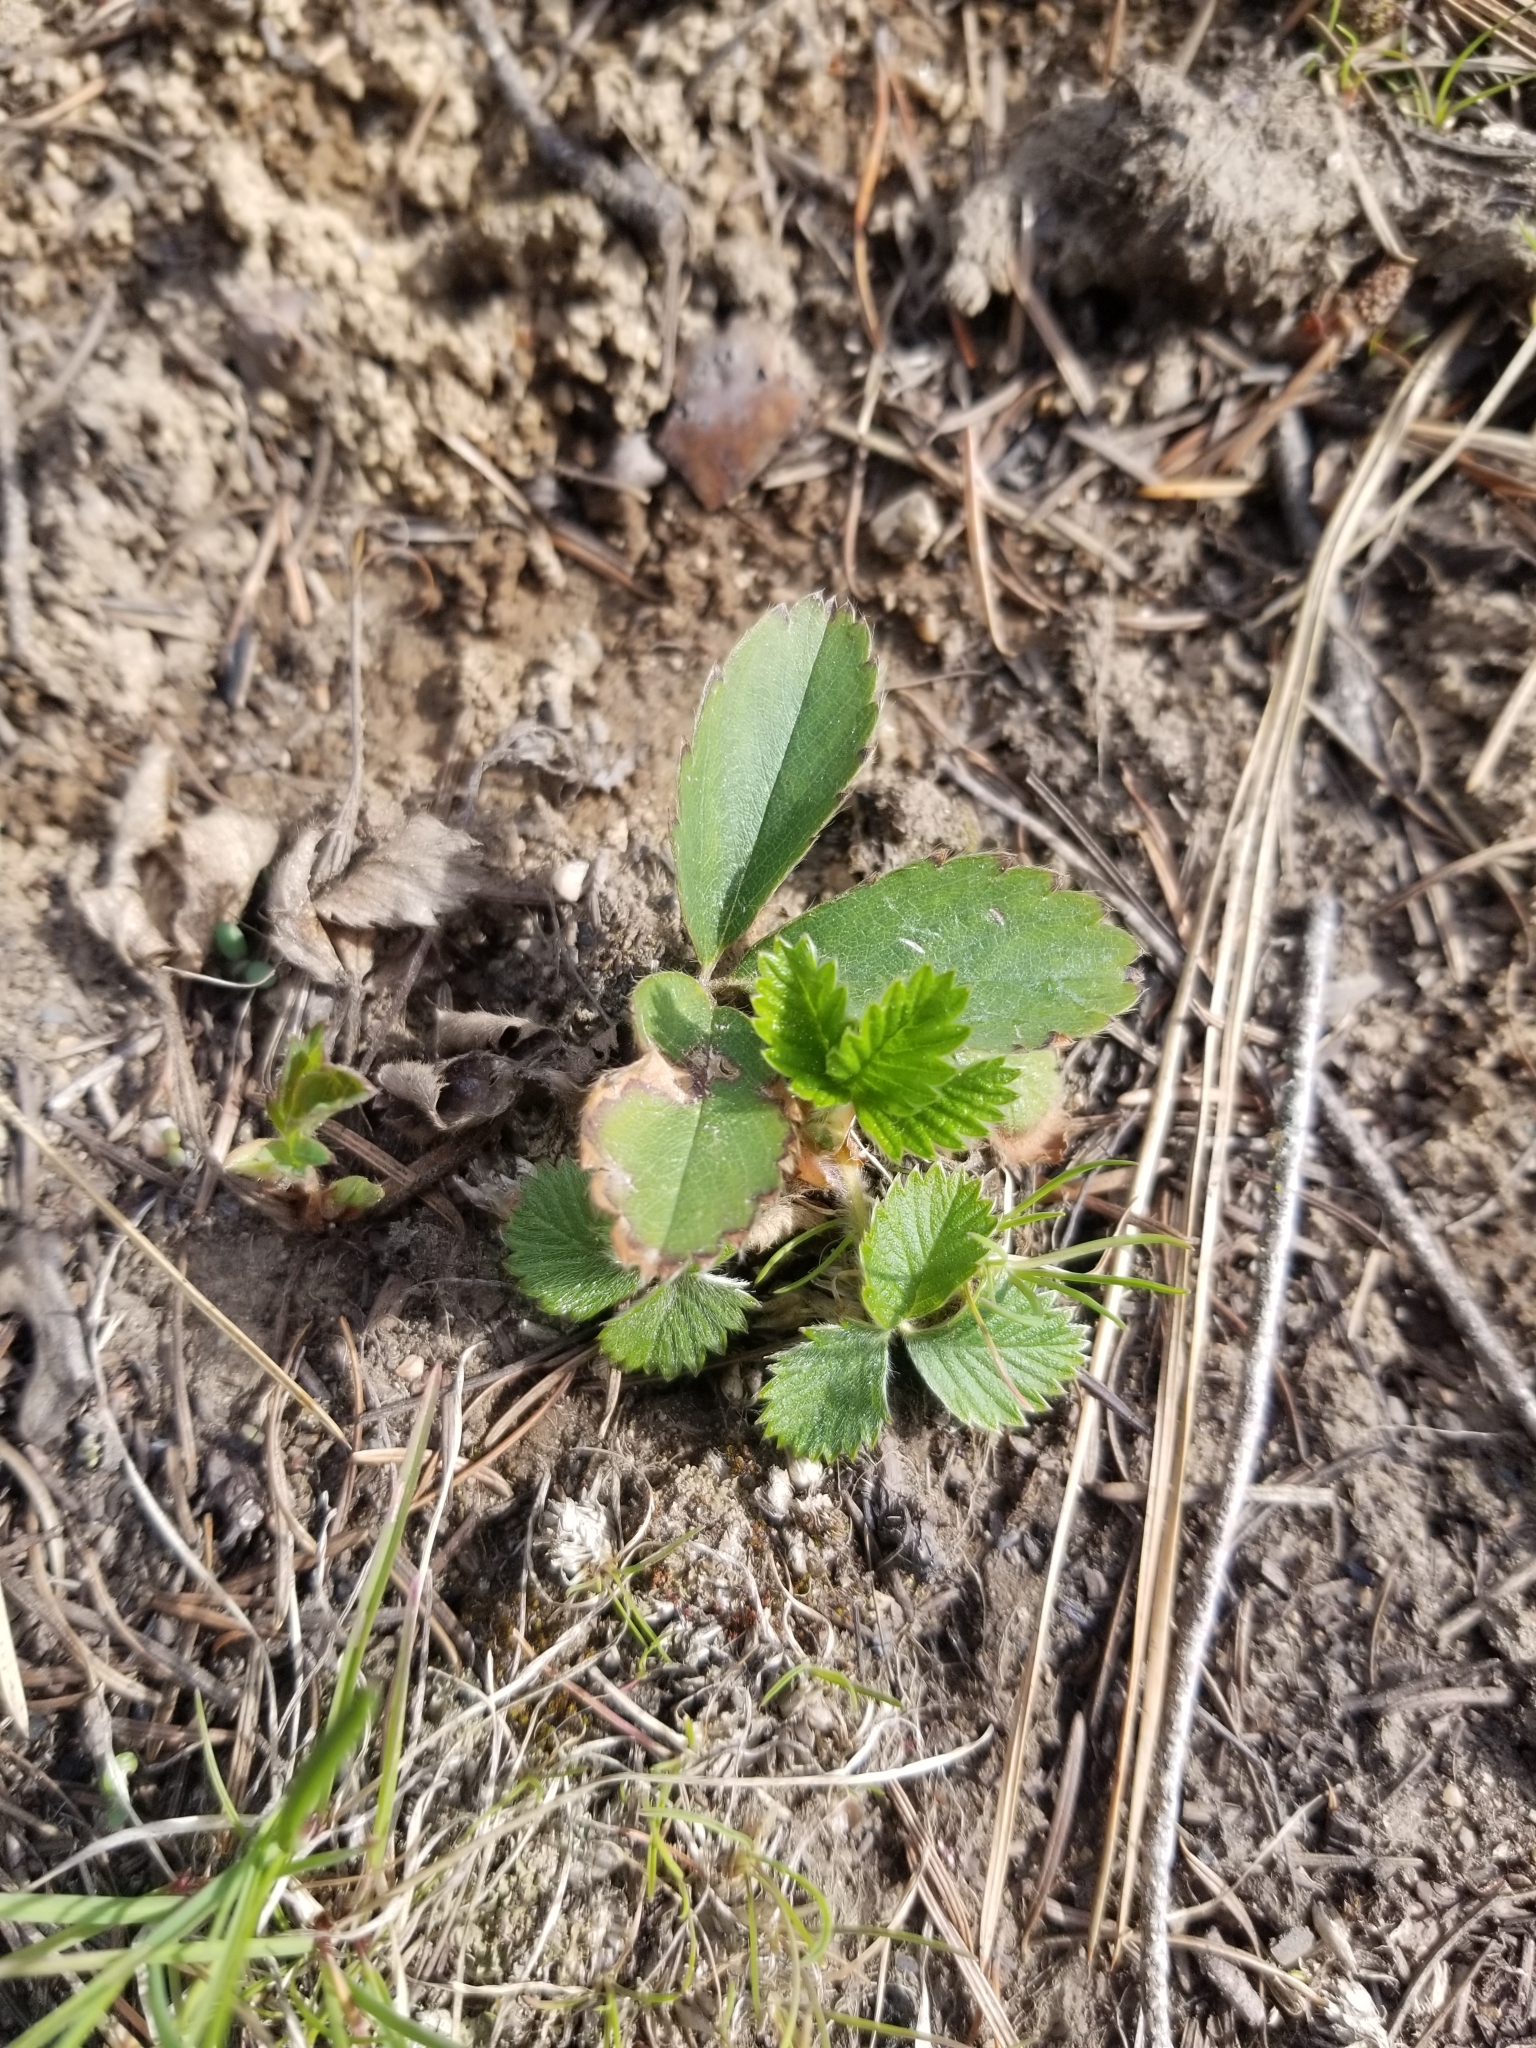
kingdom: Plantae
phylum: Tracheophyta
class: Magnoliopsida
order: Rosales
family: Rosaceae
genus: Fragaria
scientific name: Fragaria virginiana
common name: Thickleaved wild strawberry
